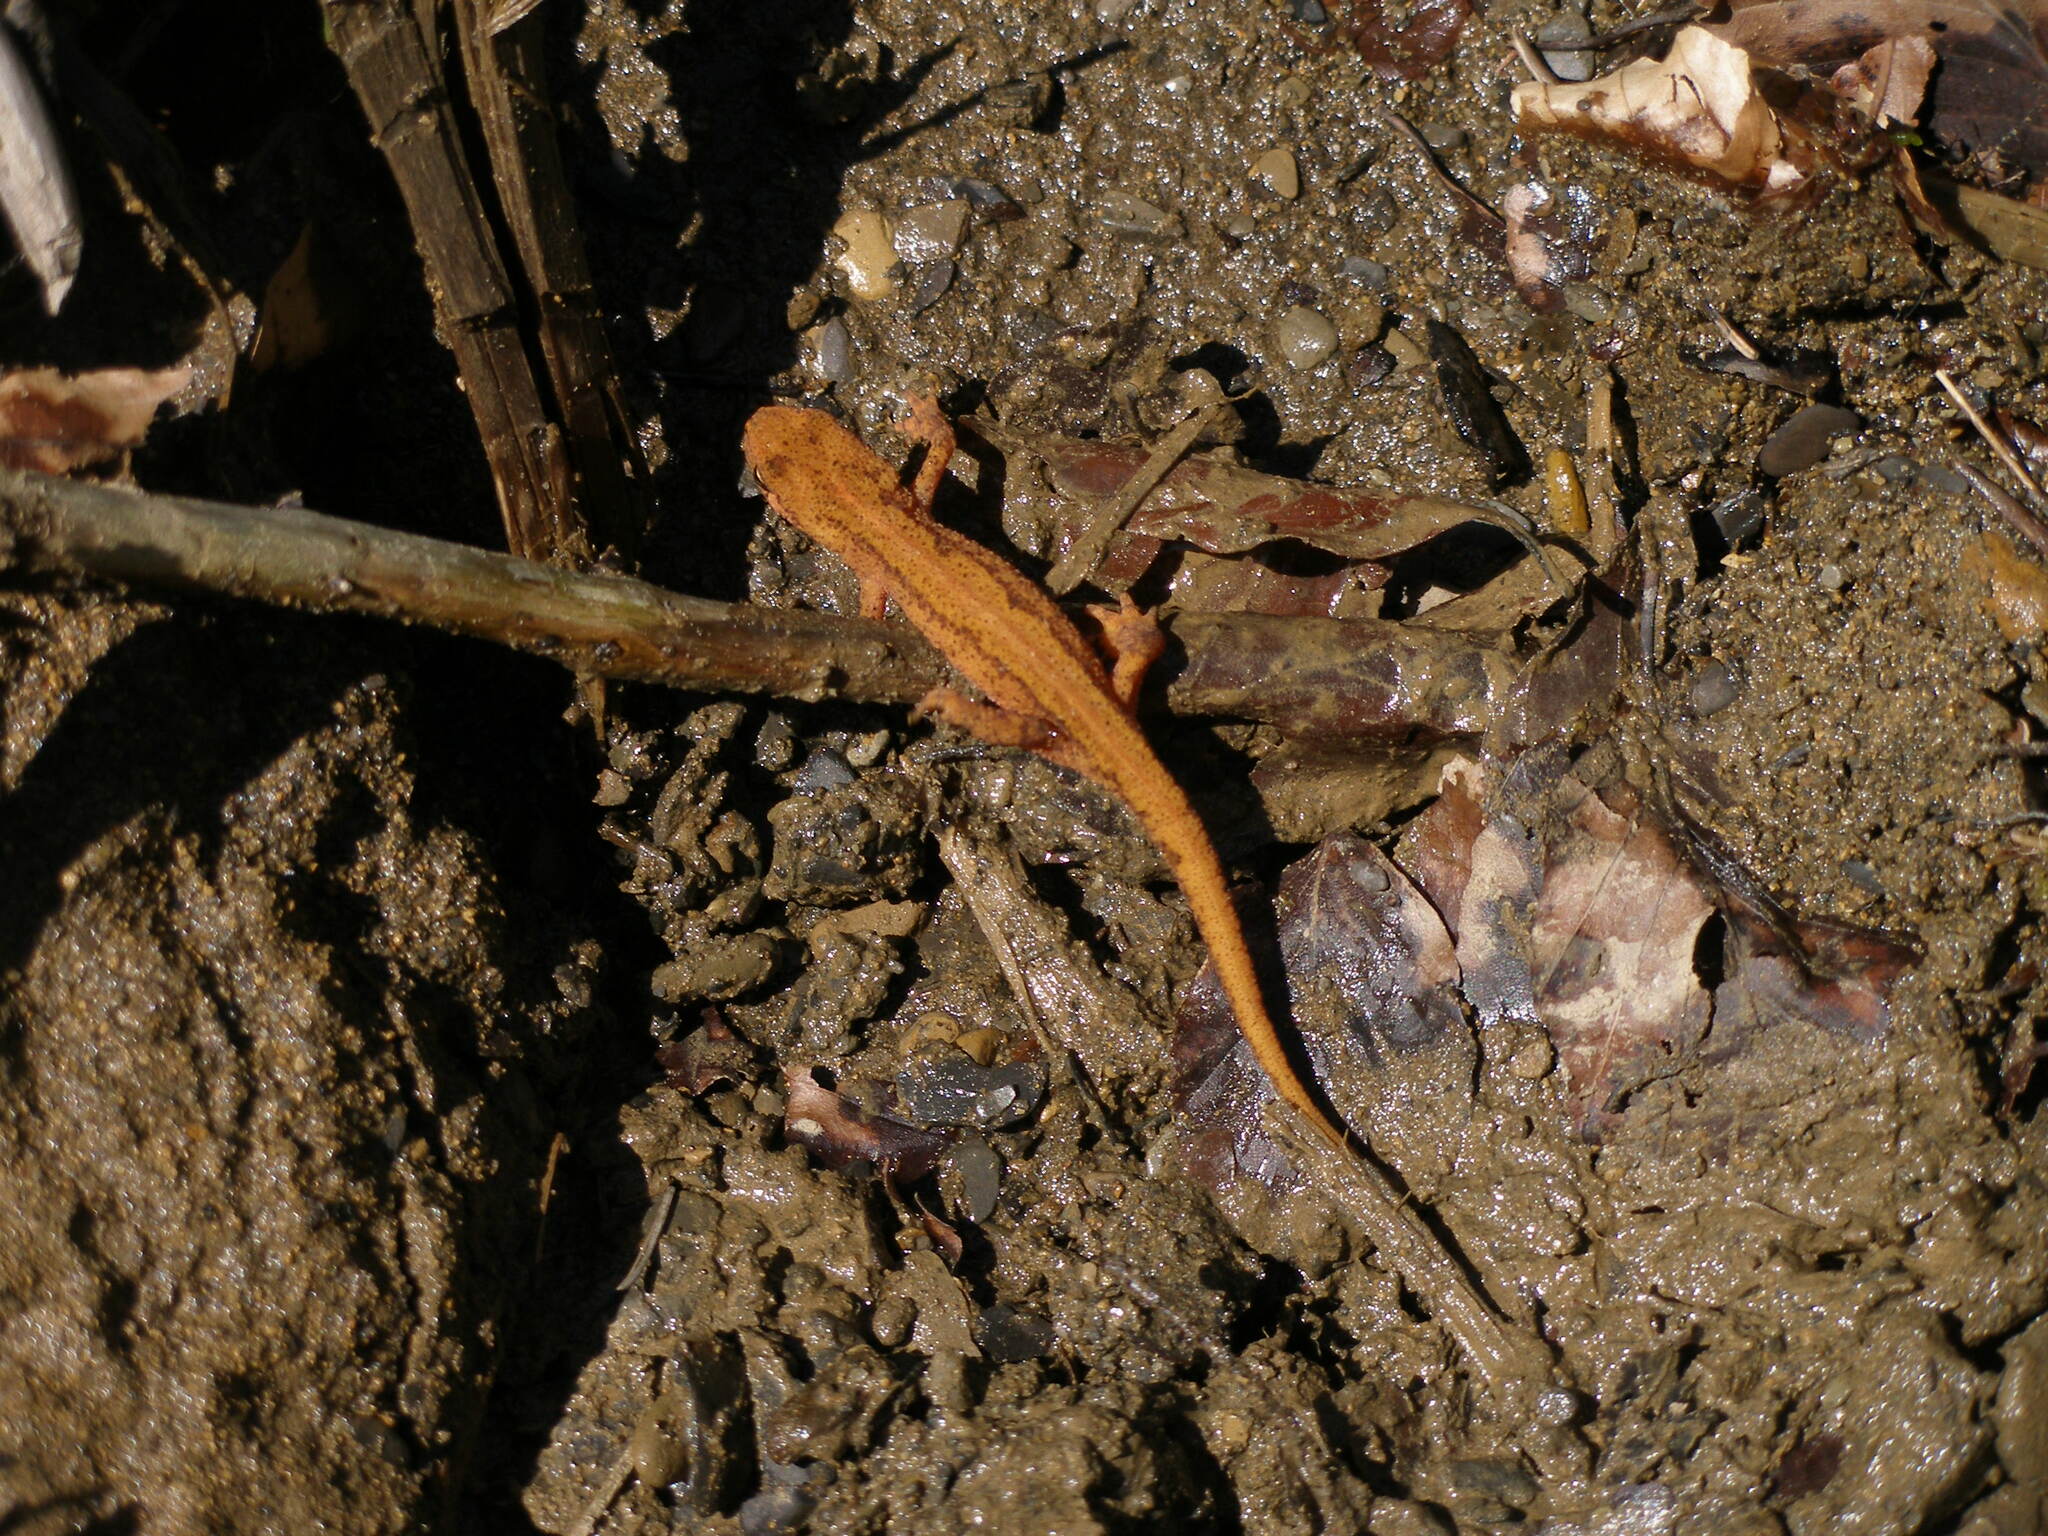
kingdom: Animalia
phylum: Chordata
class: Amphibia
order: Caudata
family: Salamandridae
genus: Lissotriton
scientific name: Lissotriton montandoni
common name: Carpathian newt
